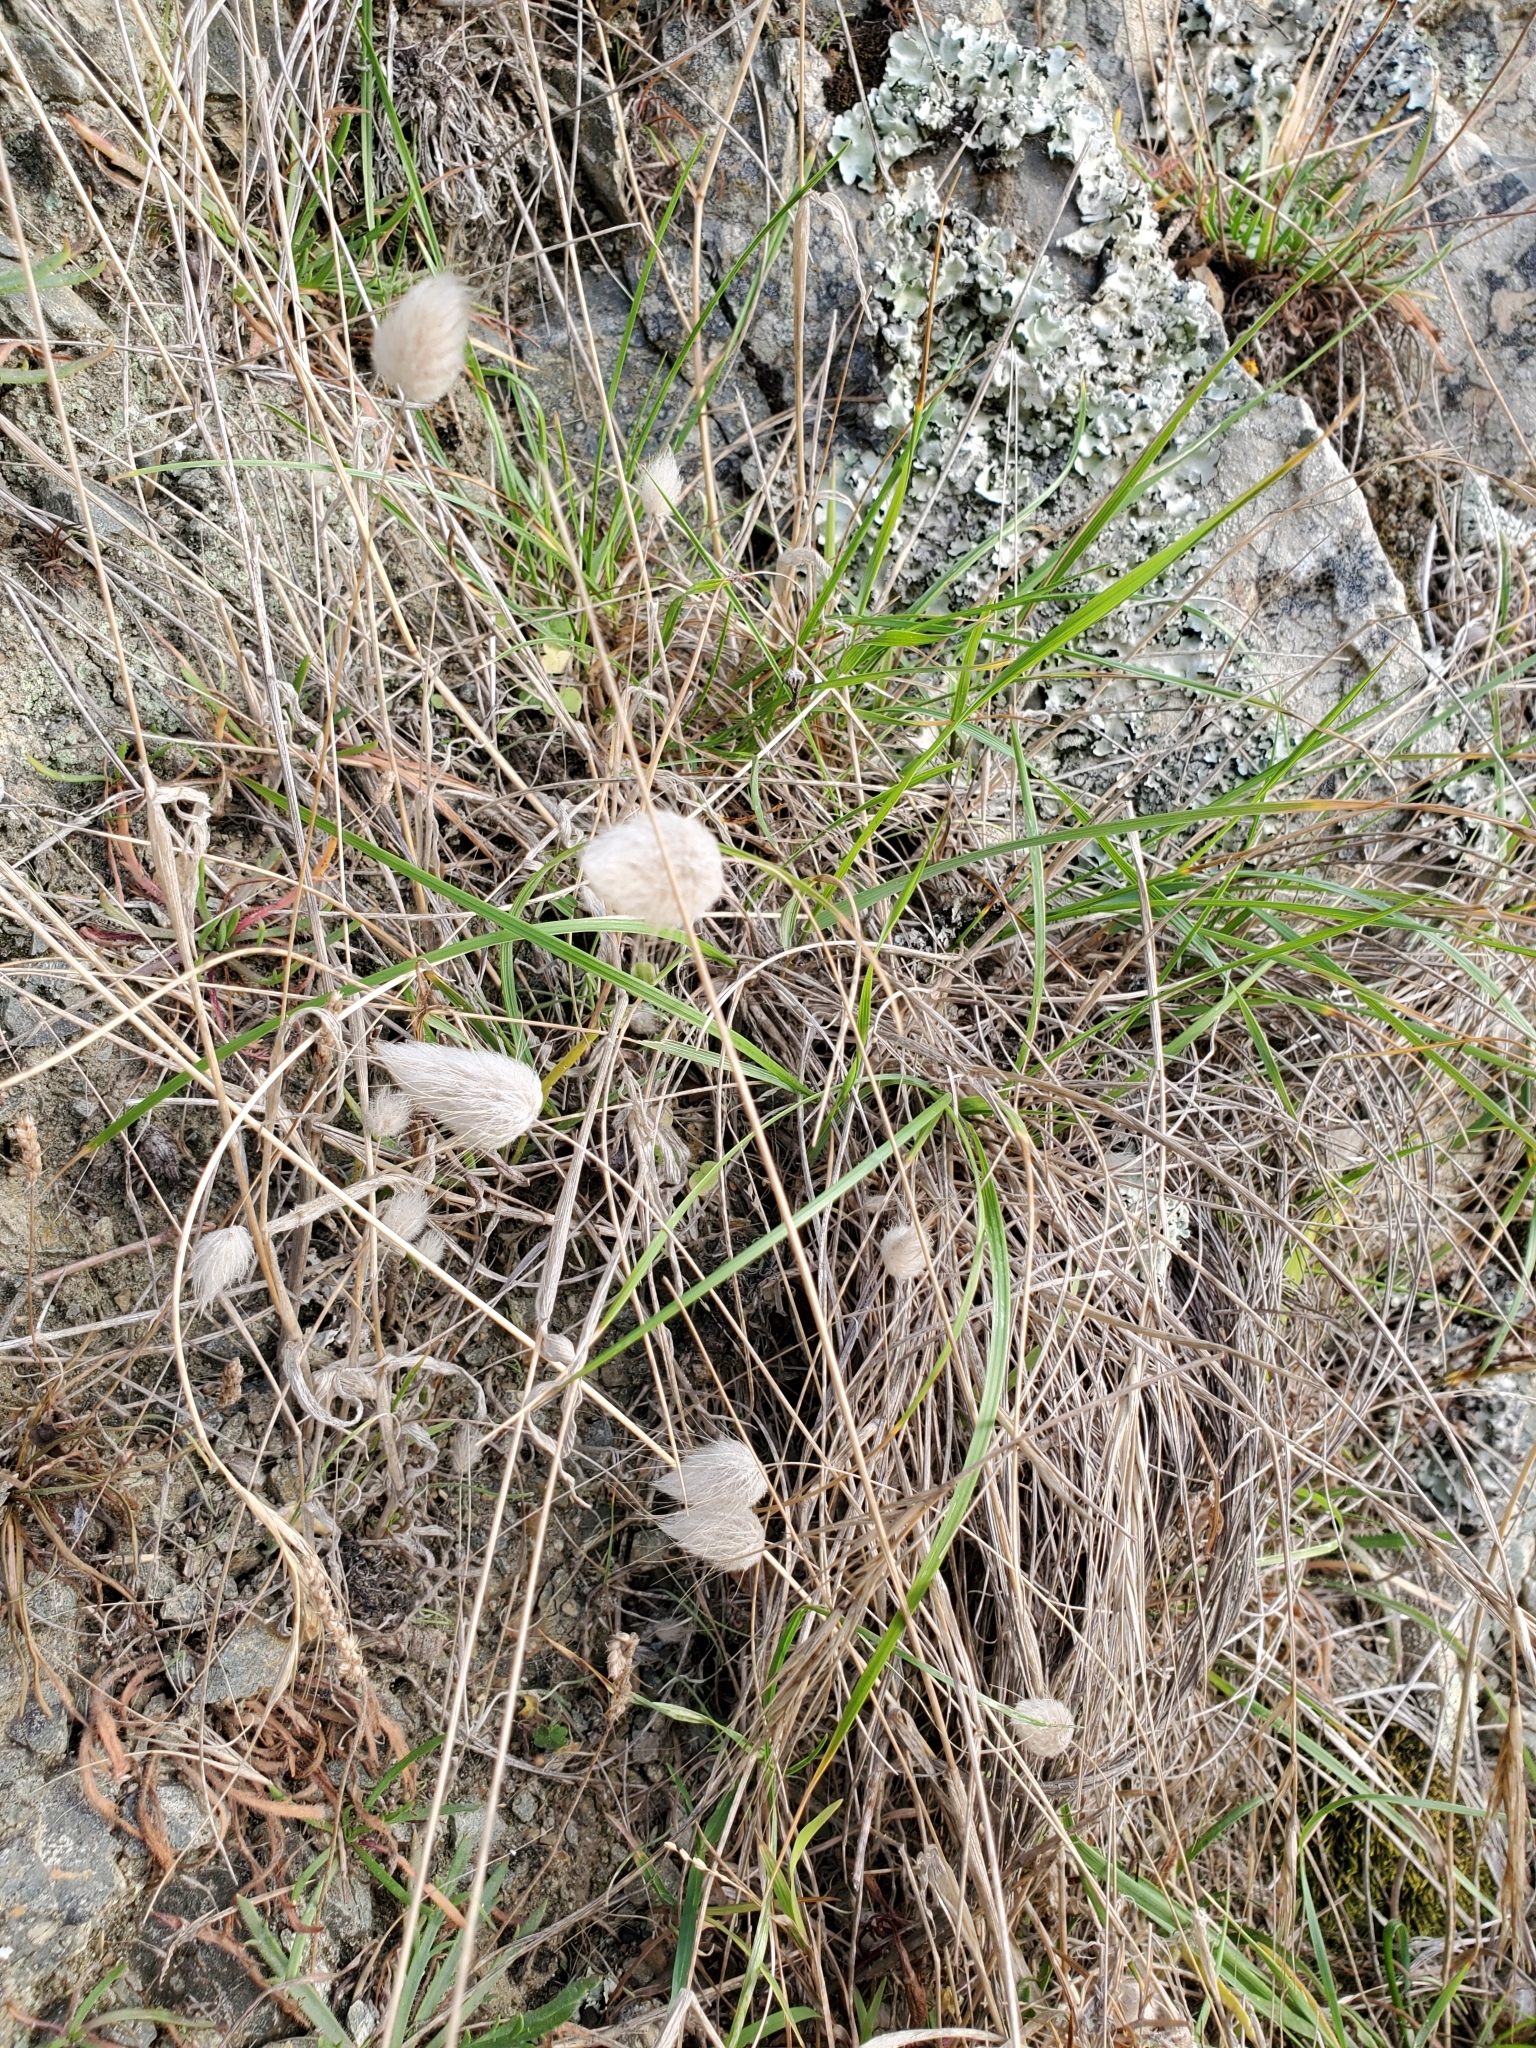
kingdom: Plantae
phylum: Tracheophyta
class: Liliopsida
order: Poales
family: Poaceae
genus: Lagurus
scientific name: Lagurus ovatus
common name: Hare's-tail
